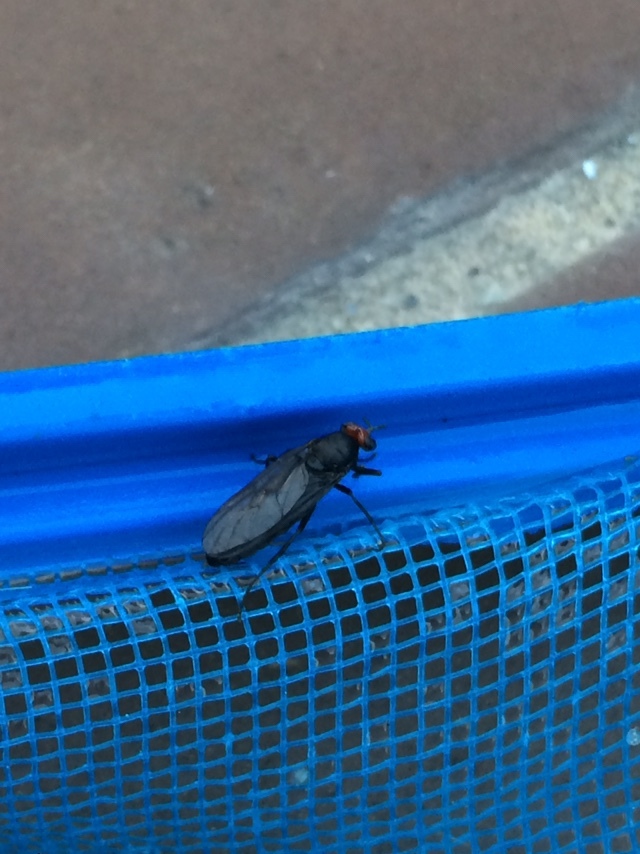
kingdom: Animalia
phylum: Arthropoda
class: Insecta
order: Diptera
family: Stratiomyidae
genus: Inopus
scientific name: Inopus rubriceps
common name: Soldier fly
